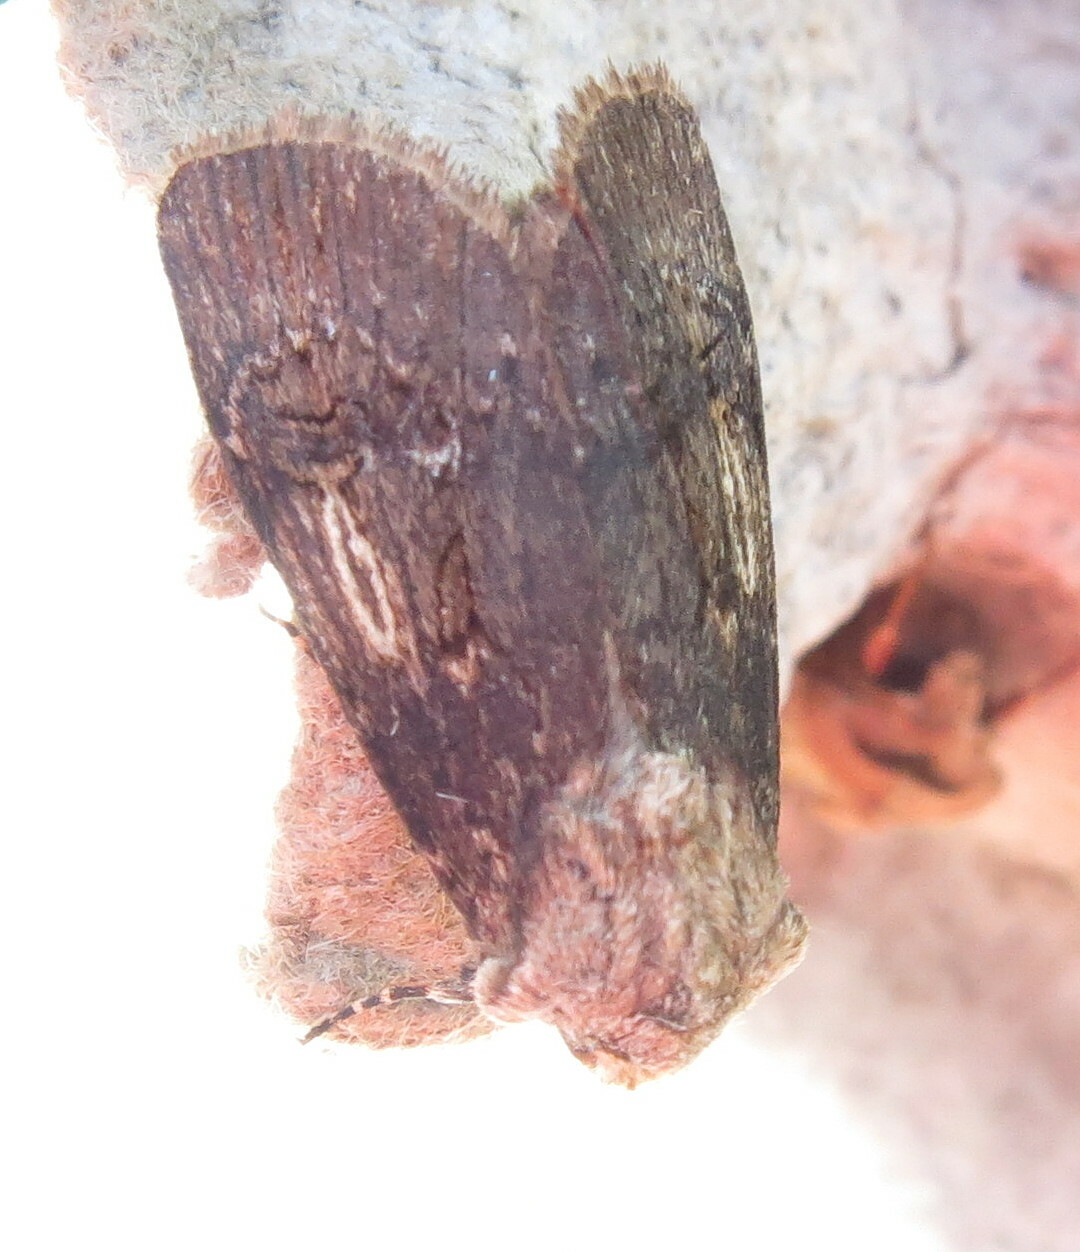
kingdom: Animalia
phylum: Arthropoda
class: Insecta
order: Lepidoptera
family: Noctuidae
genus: Agrotis
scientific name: Agrotis puta
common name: Shuttle-shaped dart
